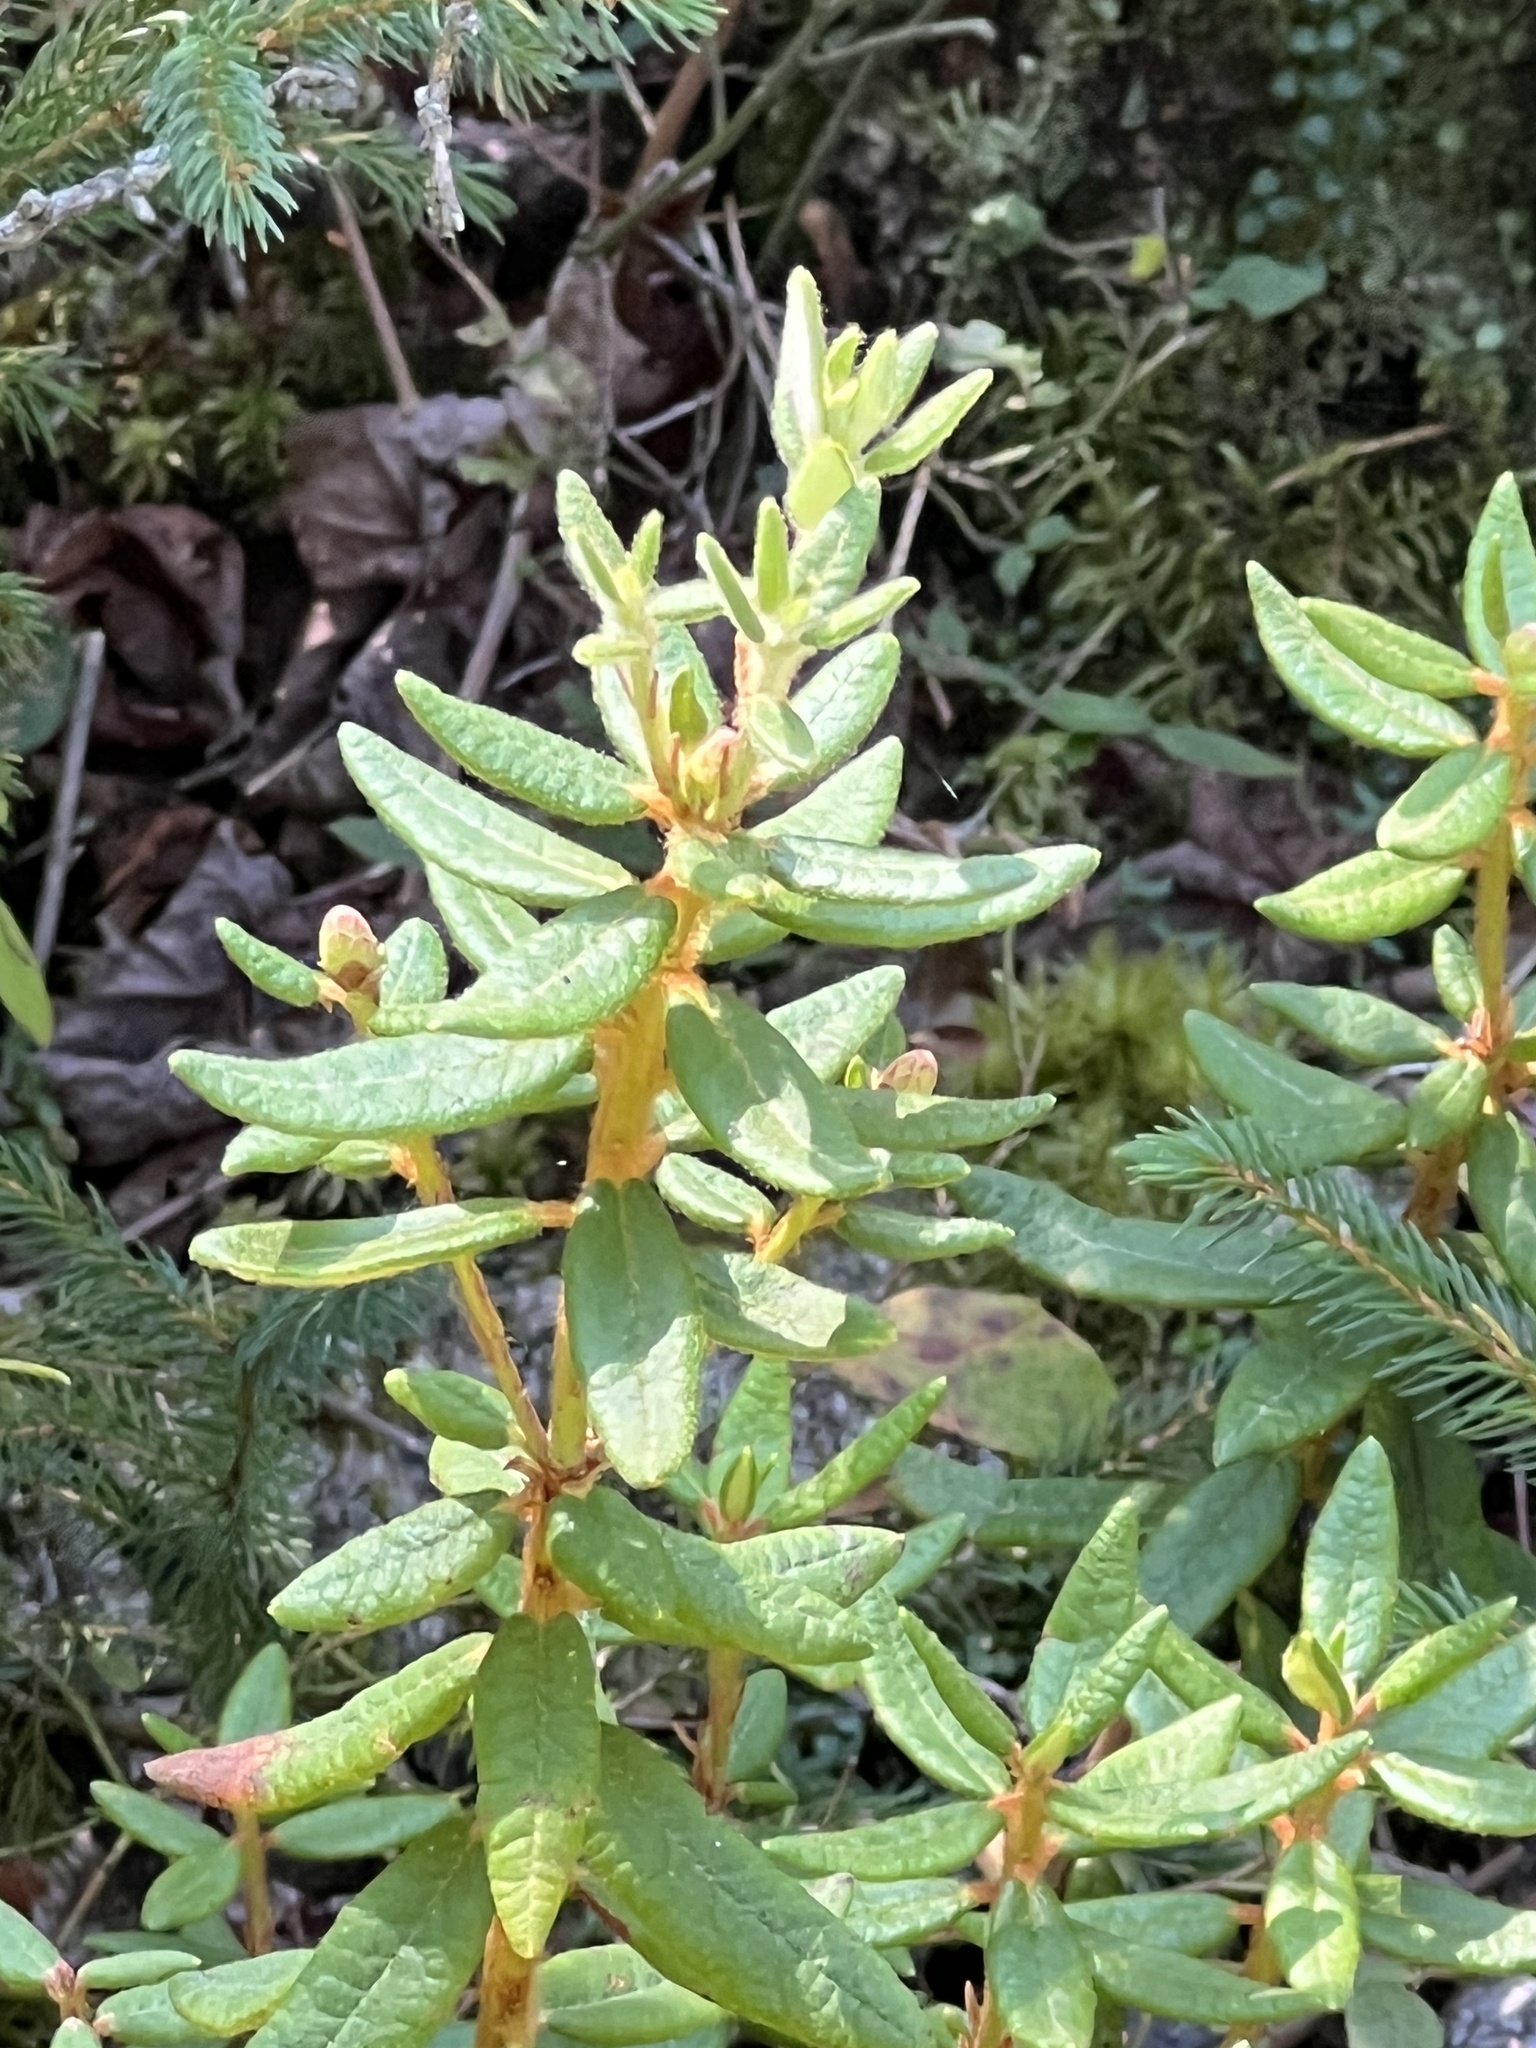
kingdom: Plantae
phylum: Tracheophyta
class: Magnoliopsida
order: Ericales
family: Ericaceae
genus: Rhododendron
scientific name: Rhododendron groenlandicum
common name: Bog labrador tea
